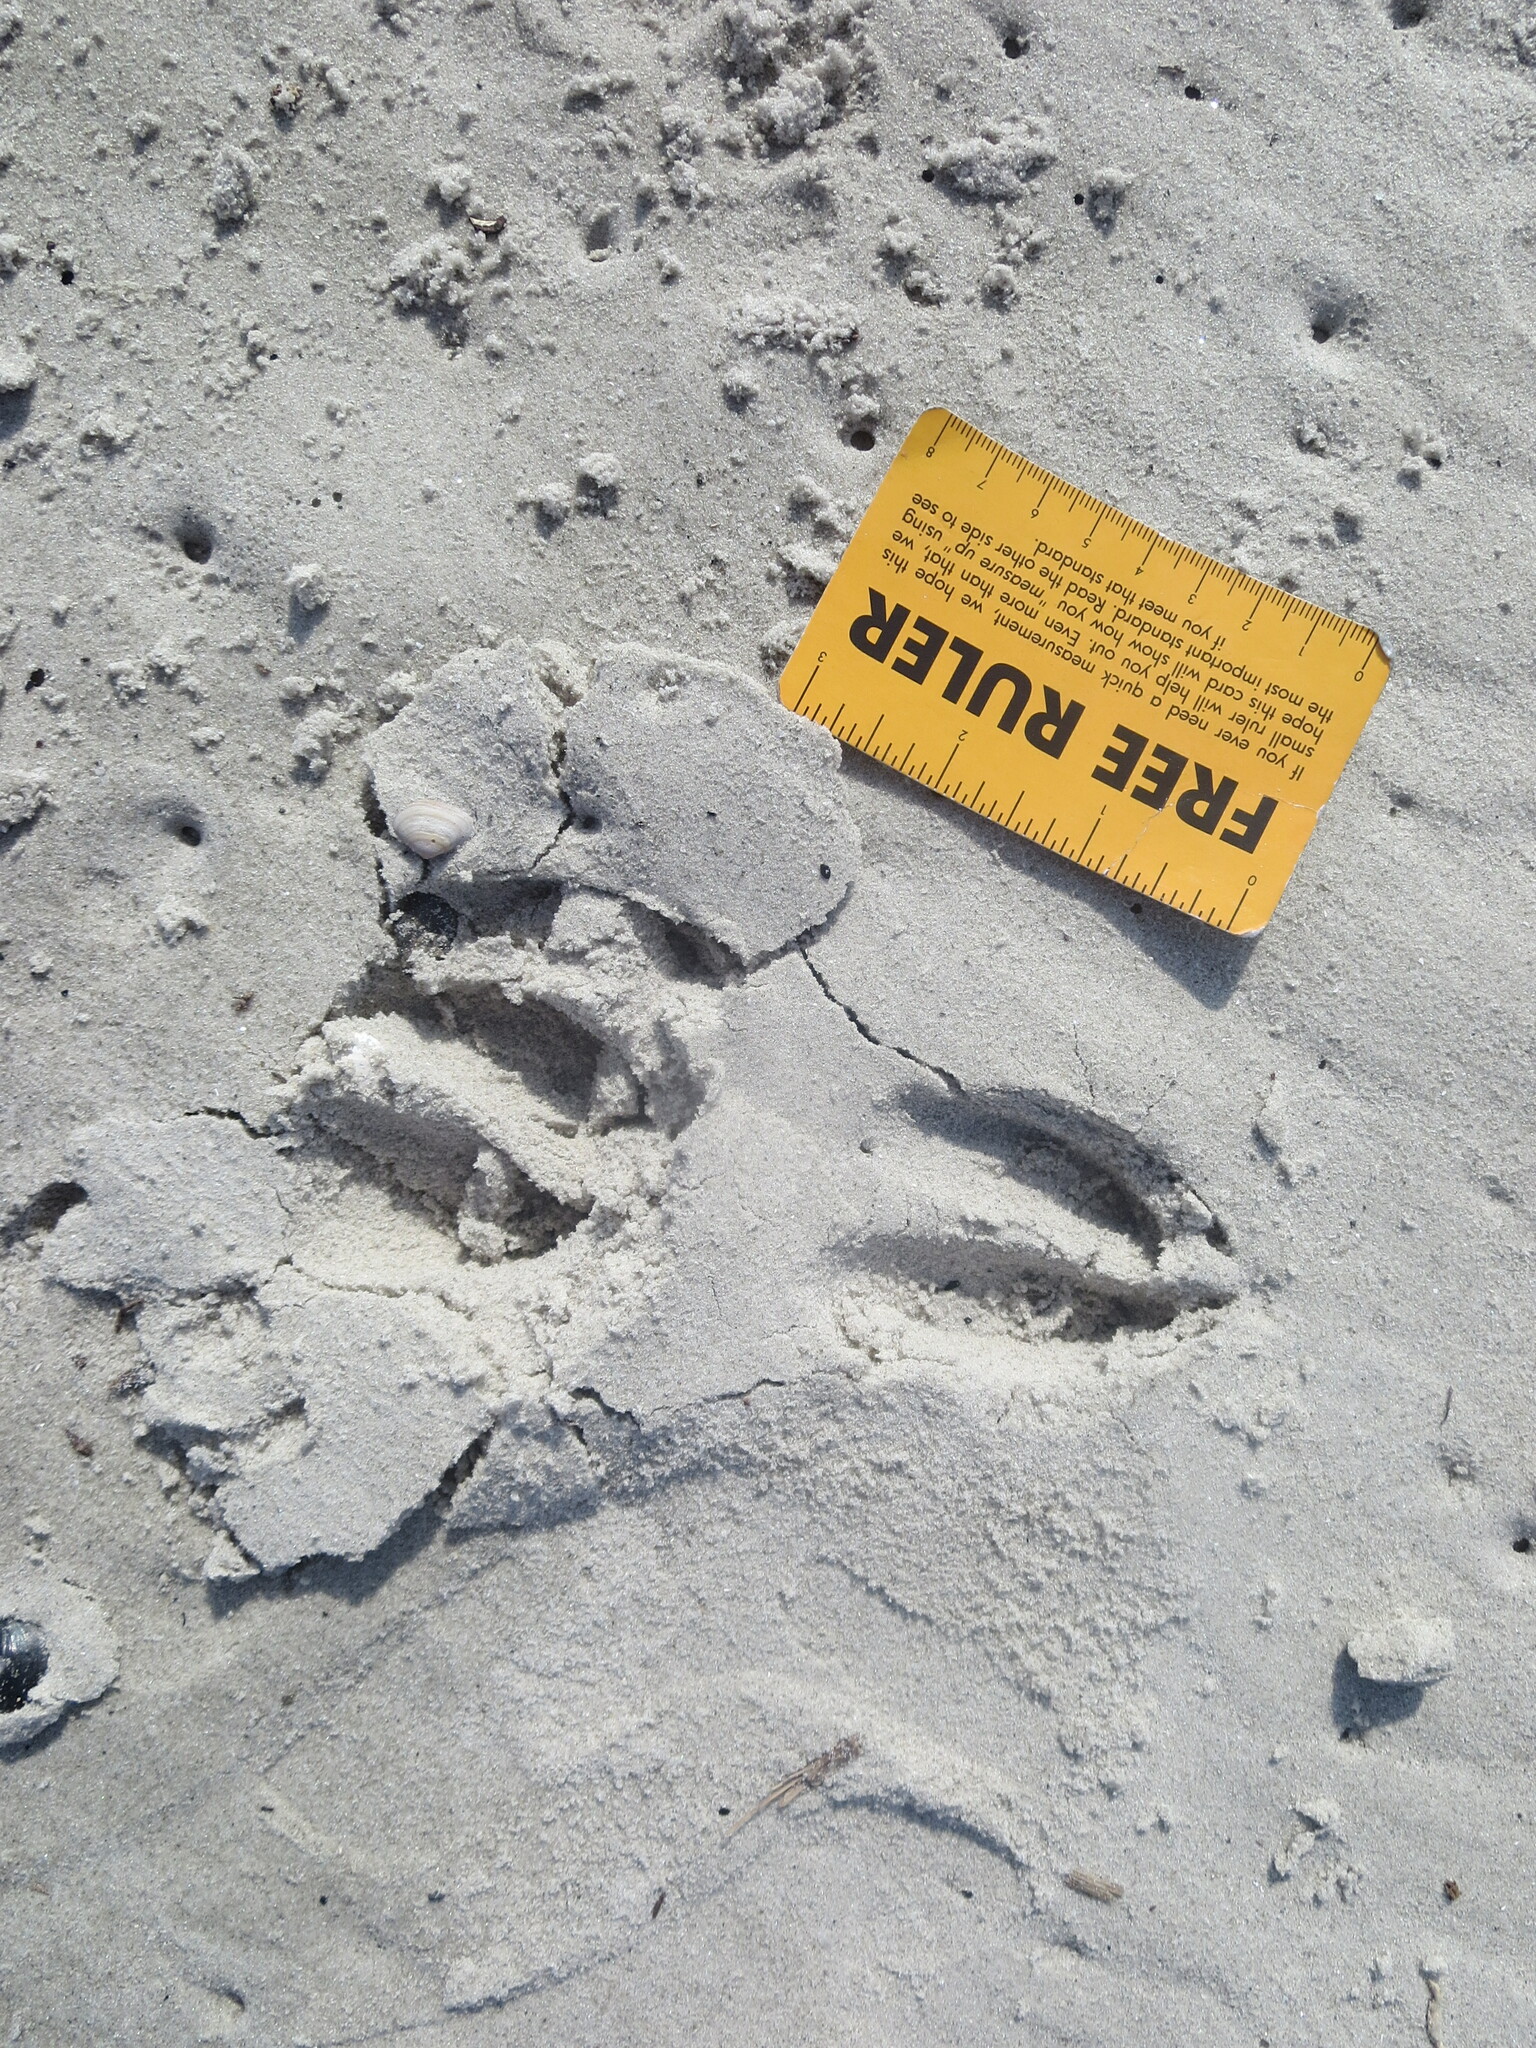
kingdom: Animalia
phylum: Chordata
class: Mammalia
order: Artiodactyla
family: Cervidae
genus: Odocoileus
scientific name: Odocoileus virginianus
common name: White-tailed deer
